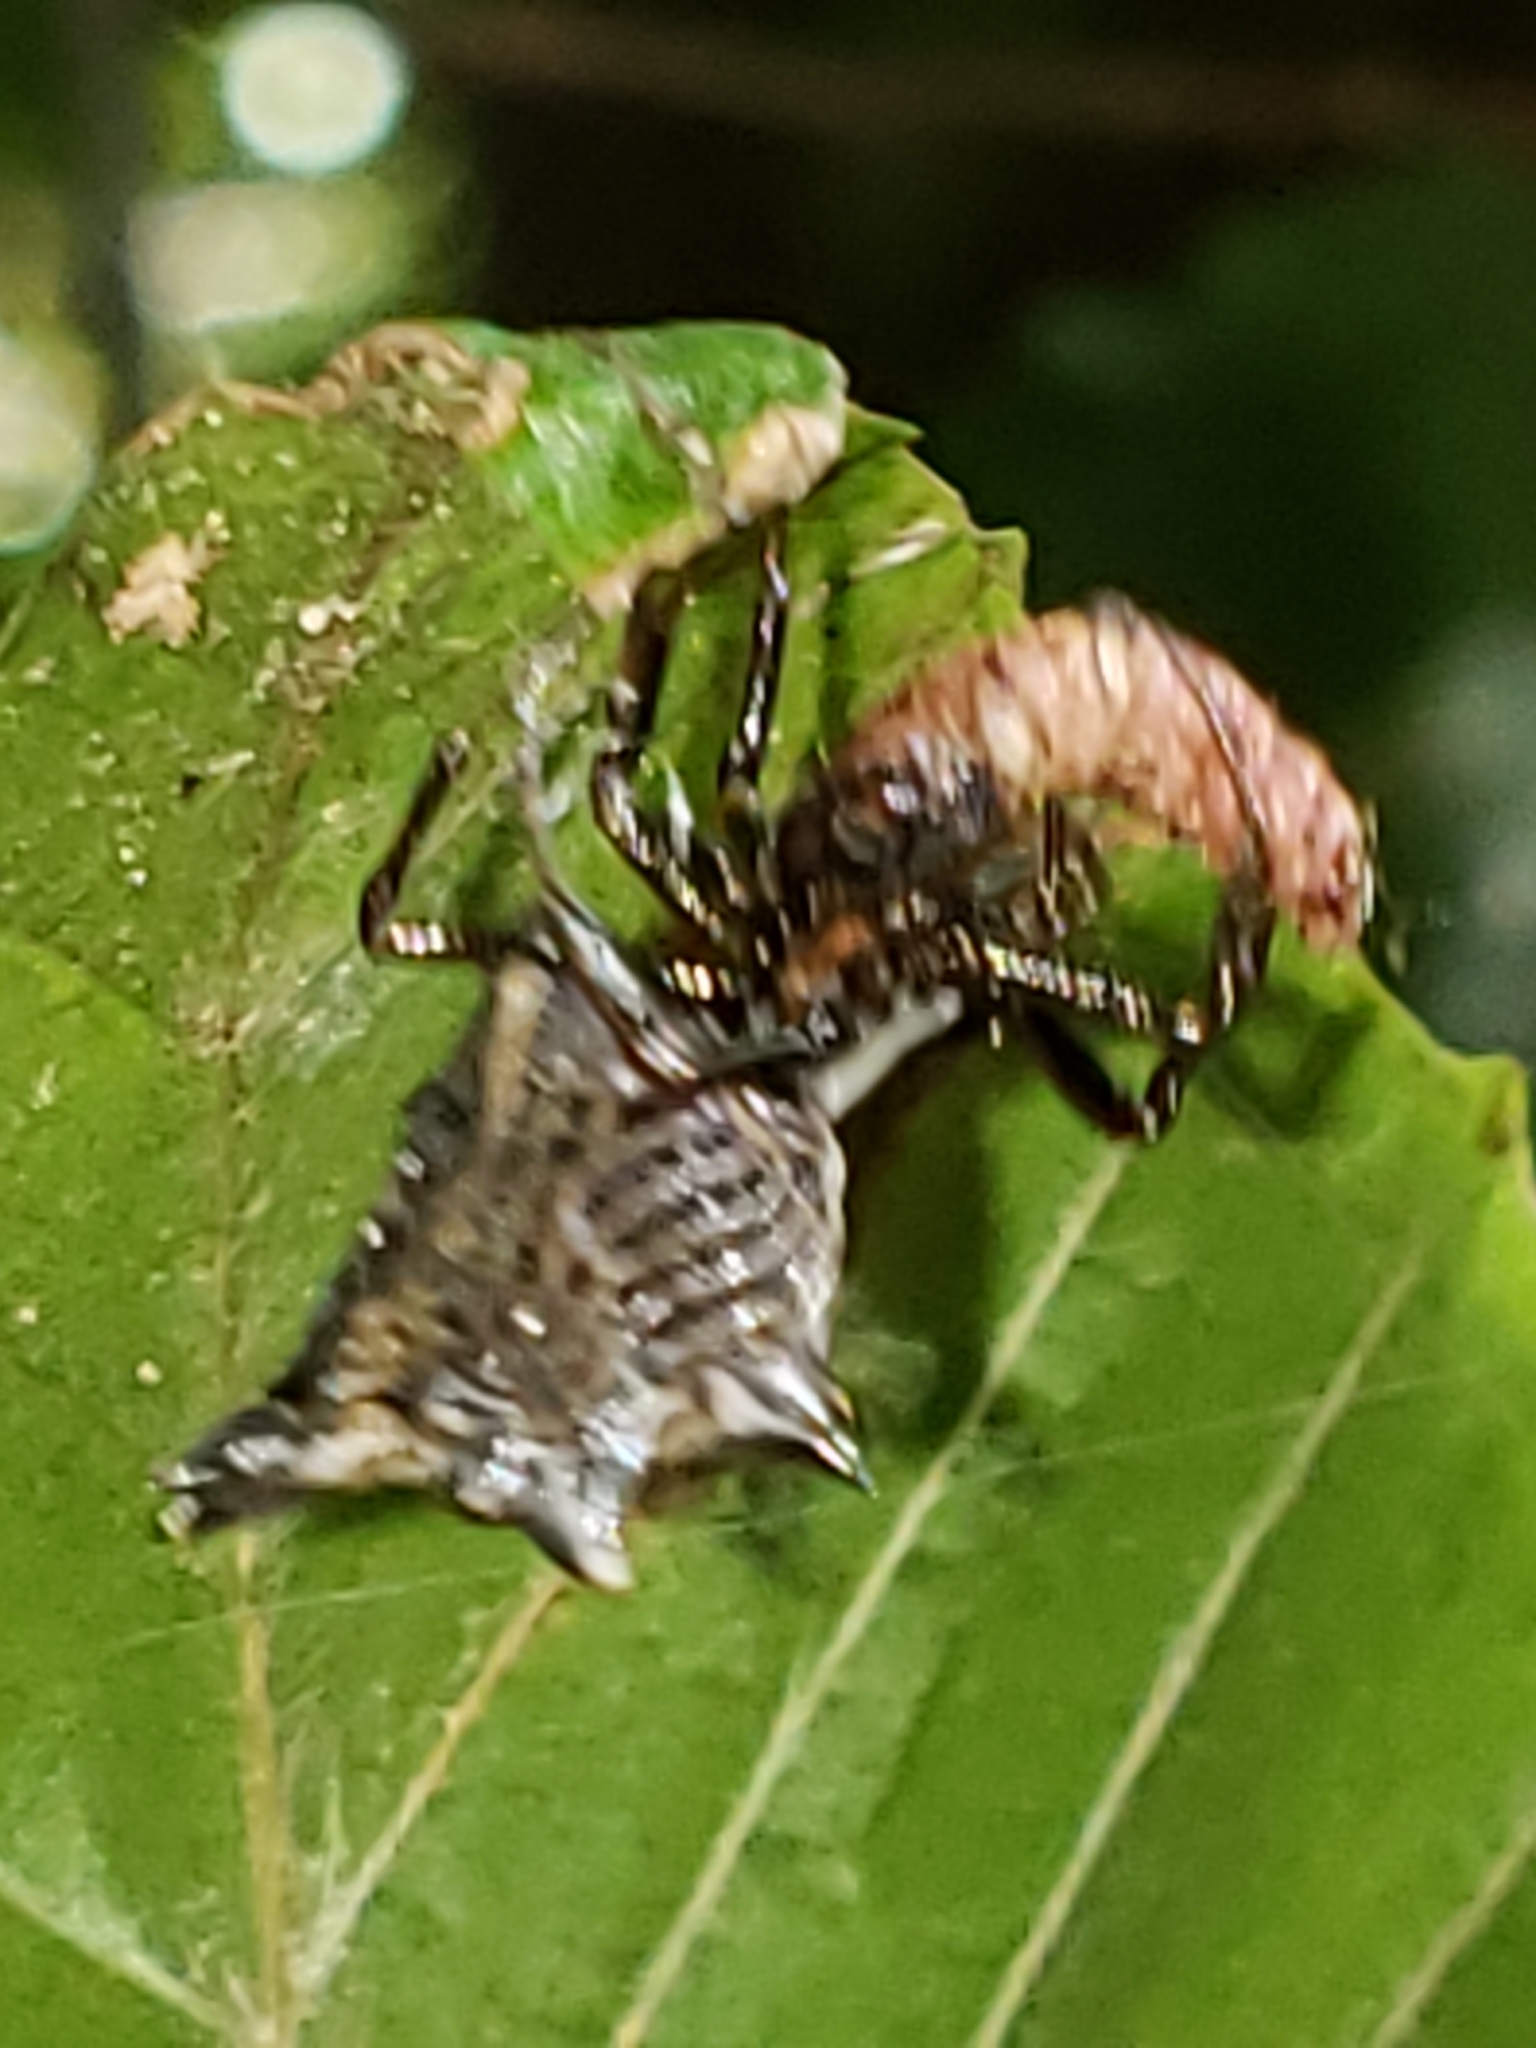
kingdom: Animalia
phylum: Arthropoda
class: Arachnida
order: Araneae
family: Araneidae
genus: Micrathena
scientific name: Micrathena gracilis
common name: Orb weavers
